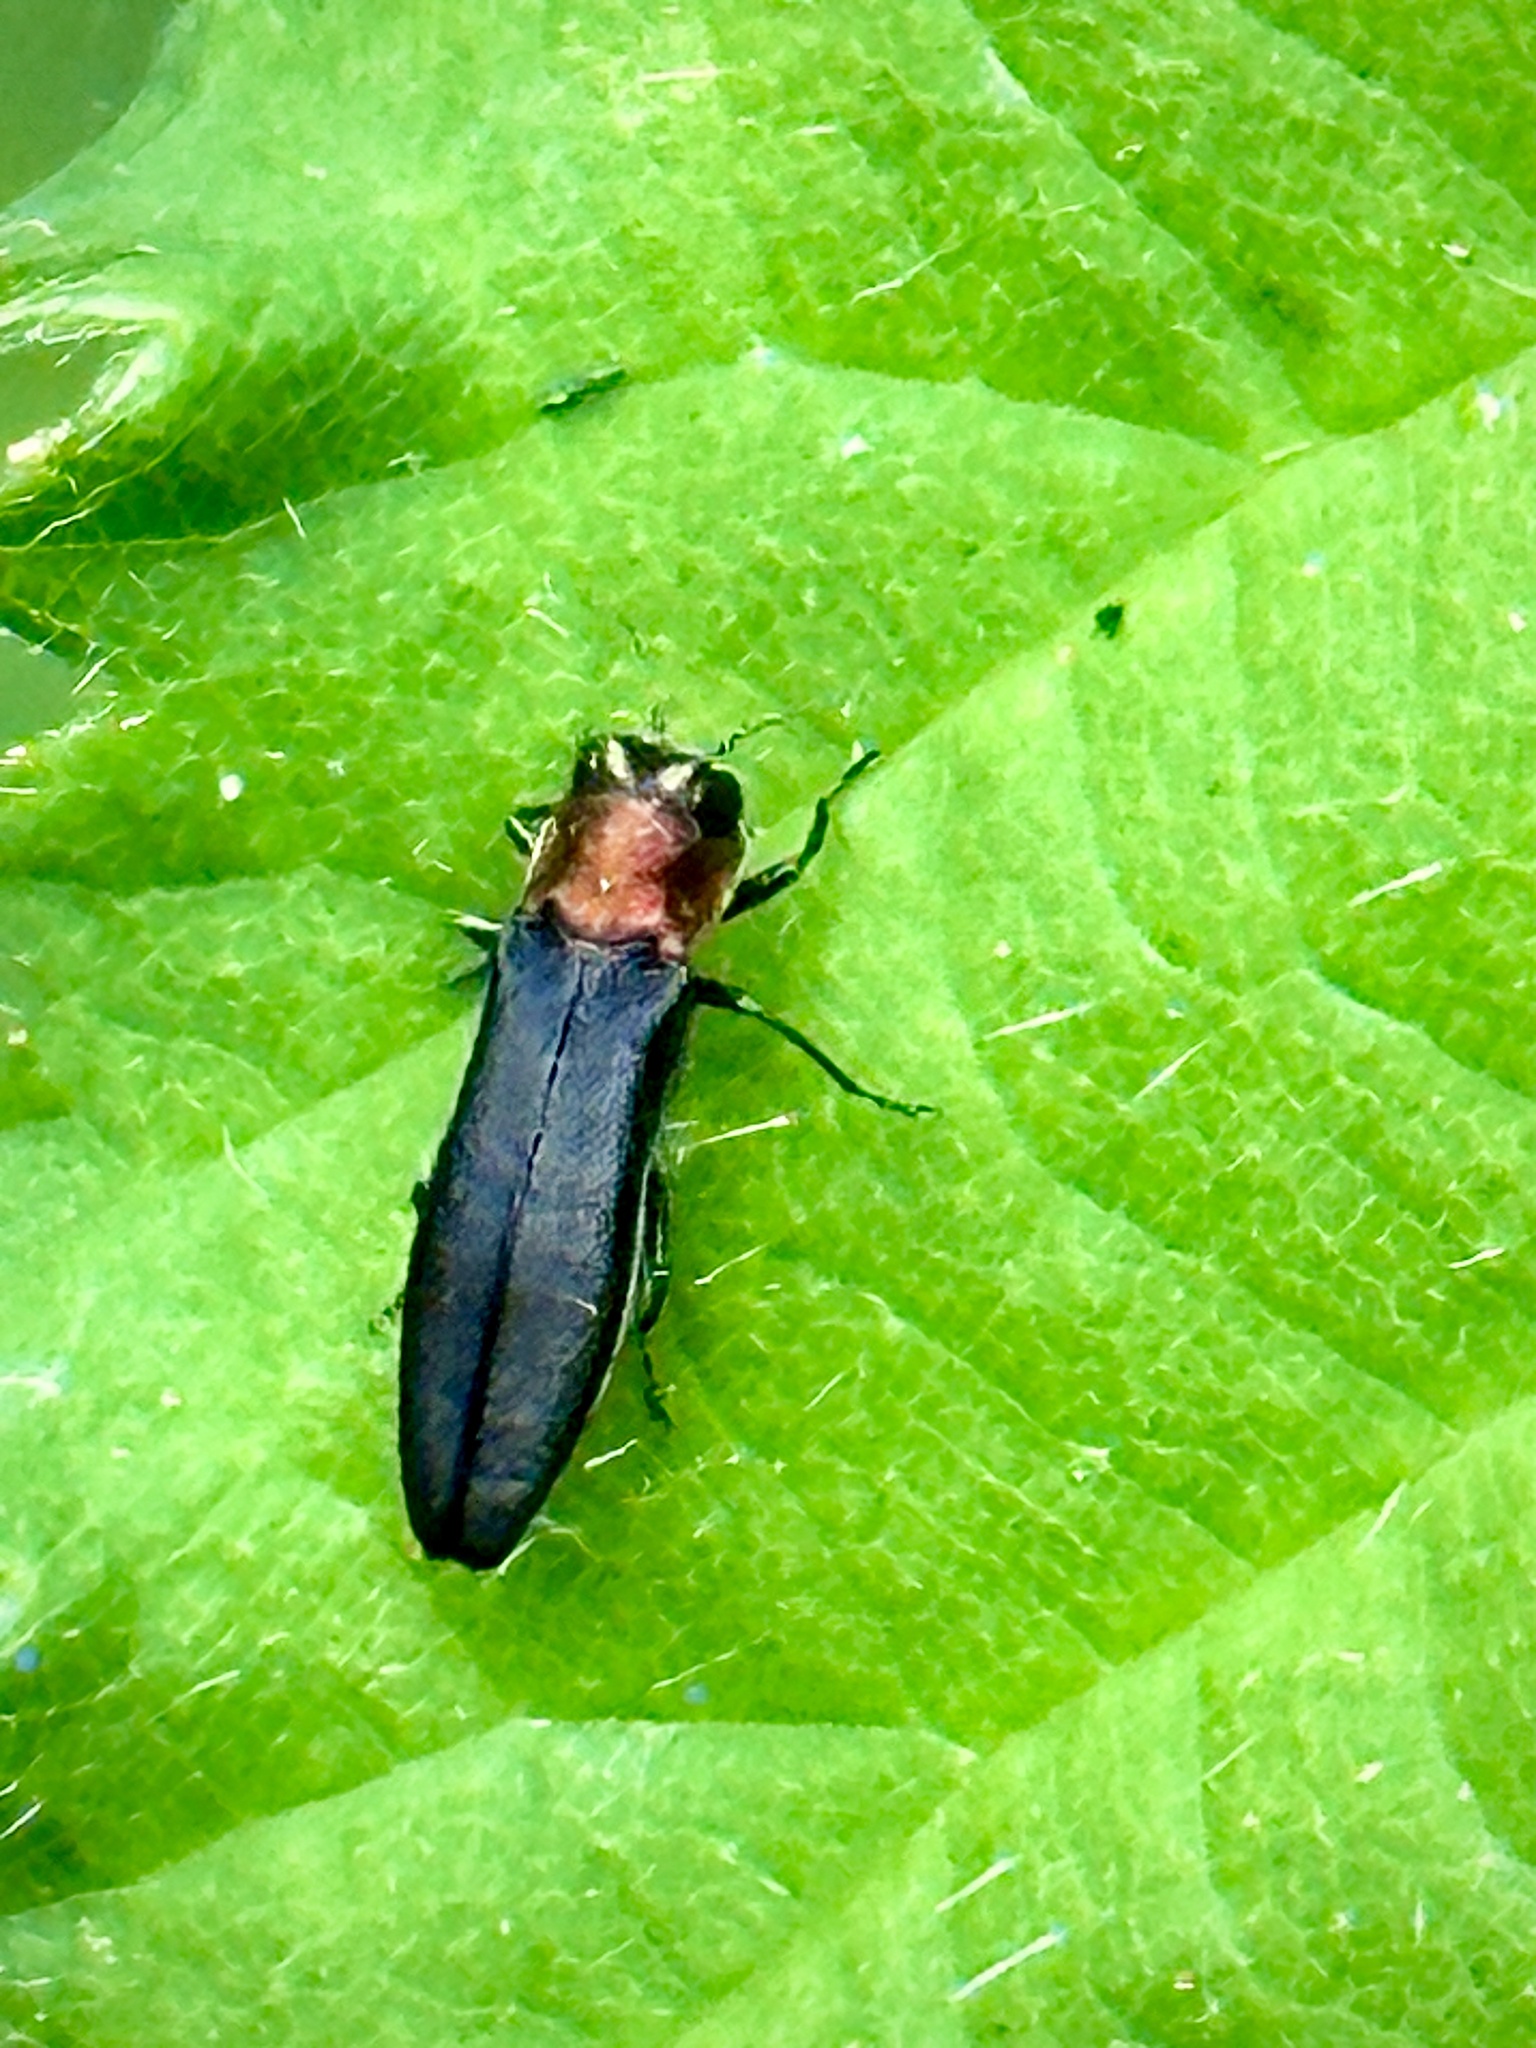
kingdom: Animalia
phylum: Arthropoda
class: Insecta
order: Coleoptera
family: Buprestidae
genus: Agrilus
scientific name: Agrilus ruficollis
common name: Red-necked cane borer beetle
